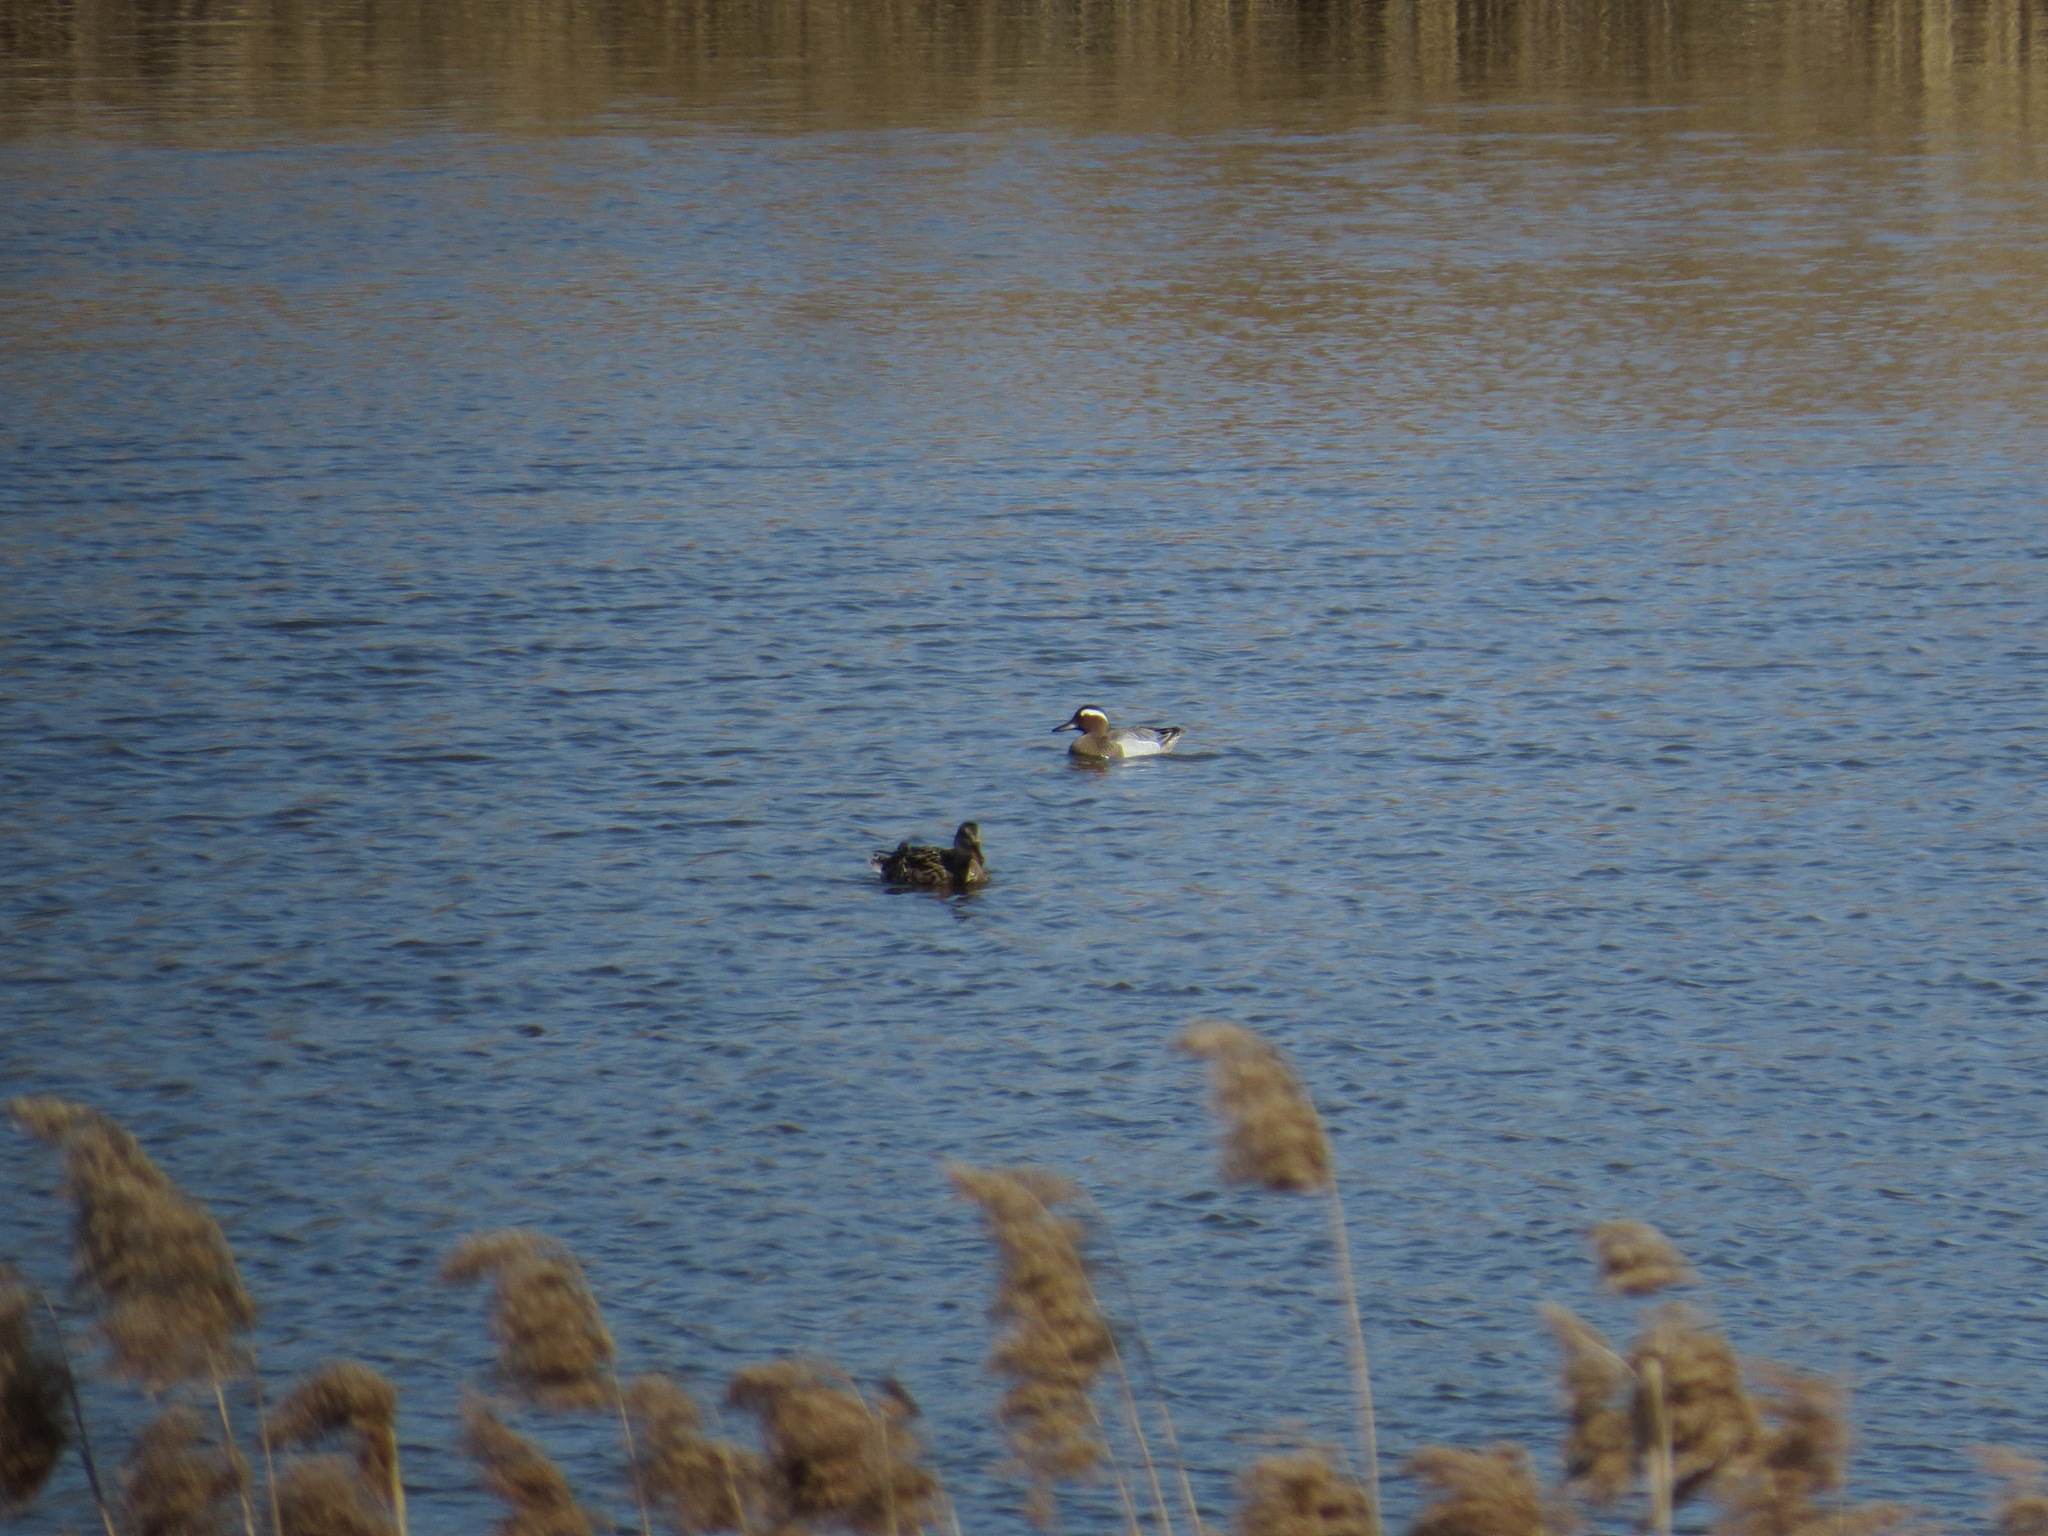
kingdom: Animalia
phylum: Chordata
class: Aves
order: Anseriformes
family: Anatidae
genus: Spatula
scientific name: Spatula querquedula
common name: Garganey
